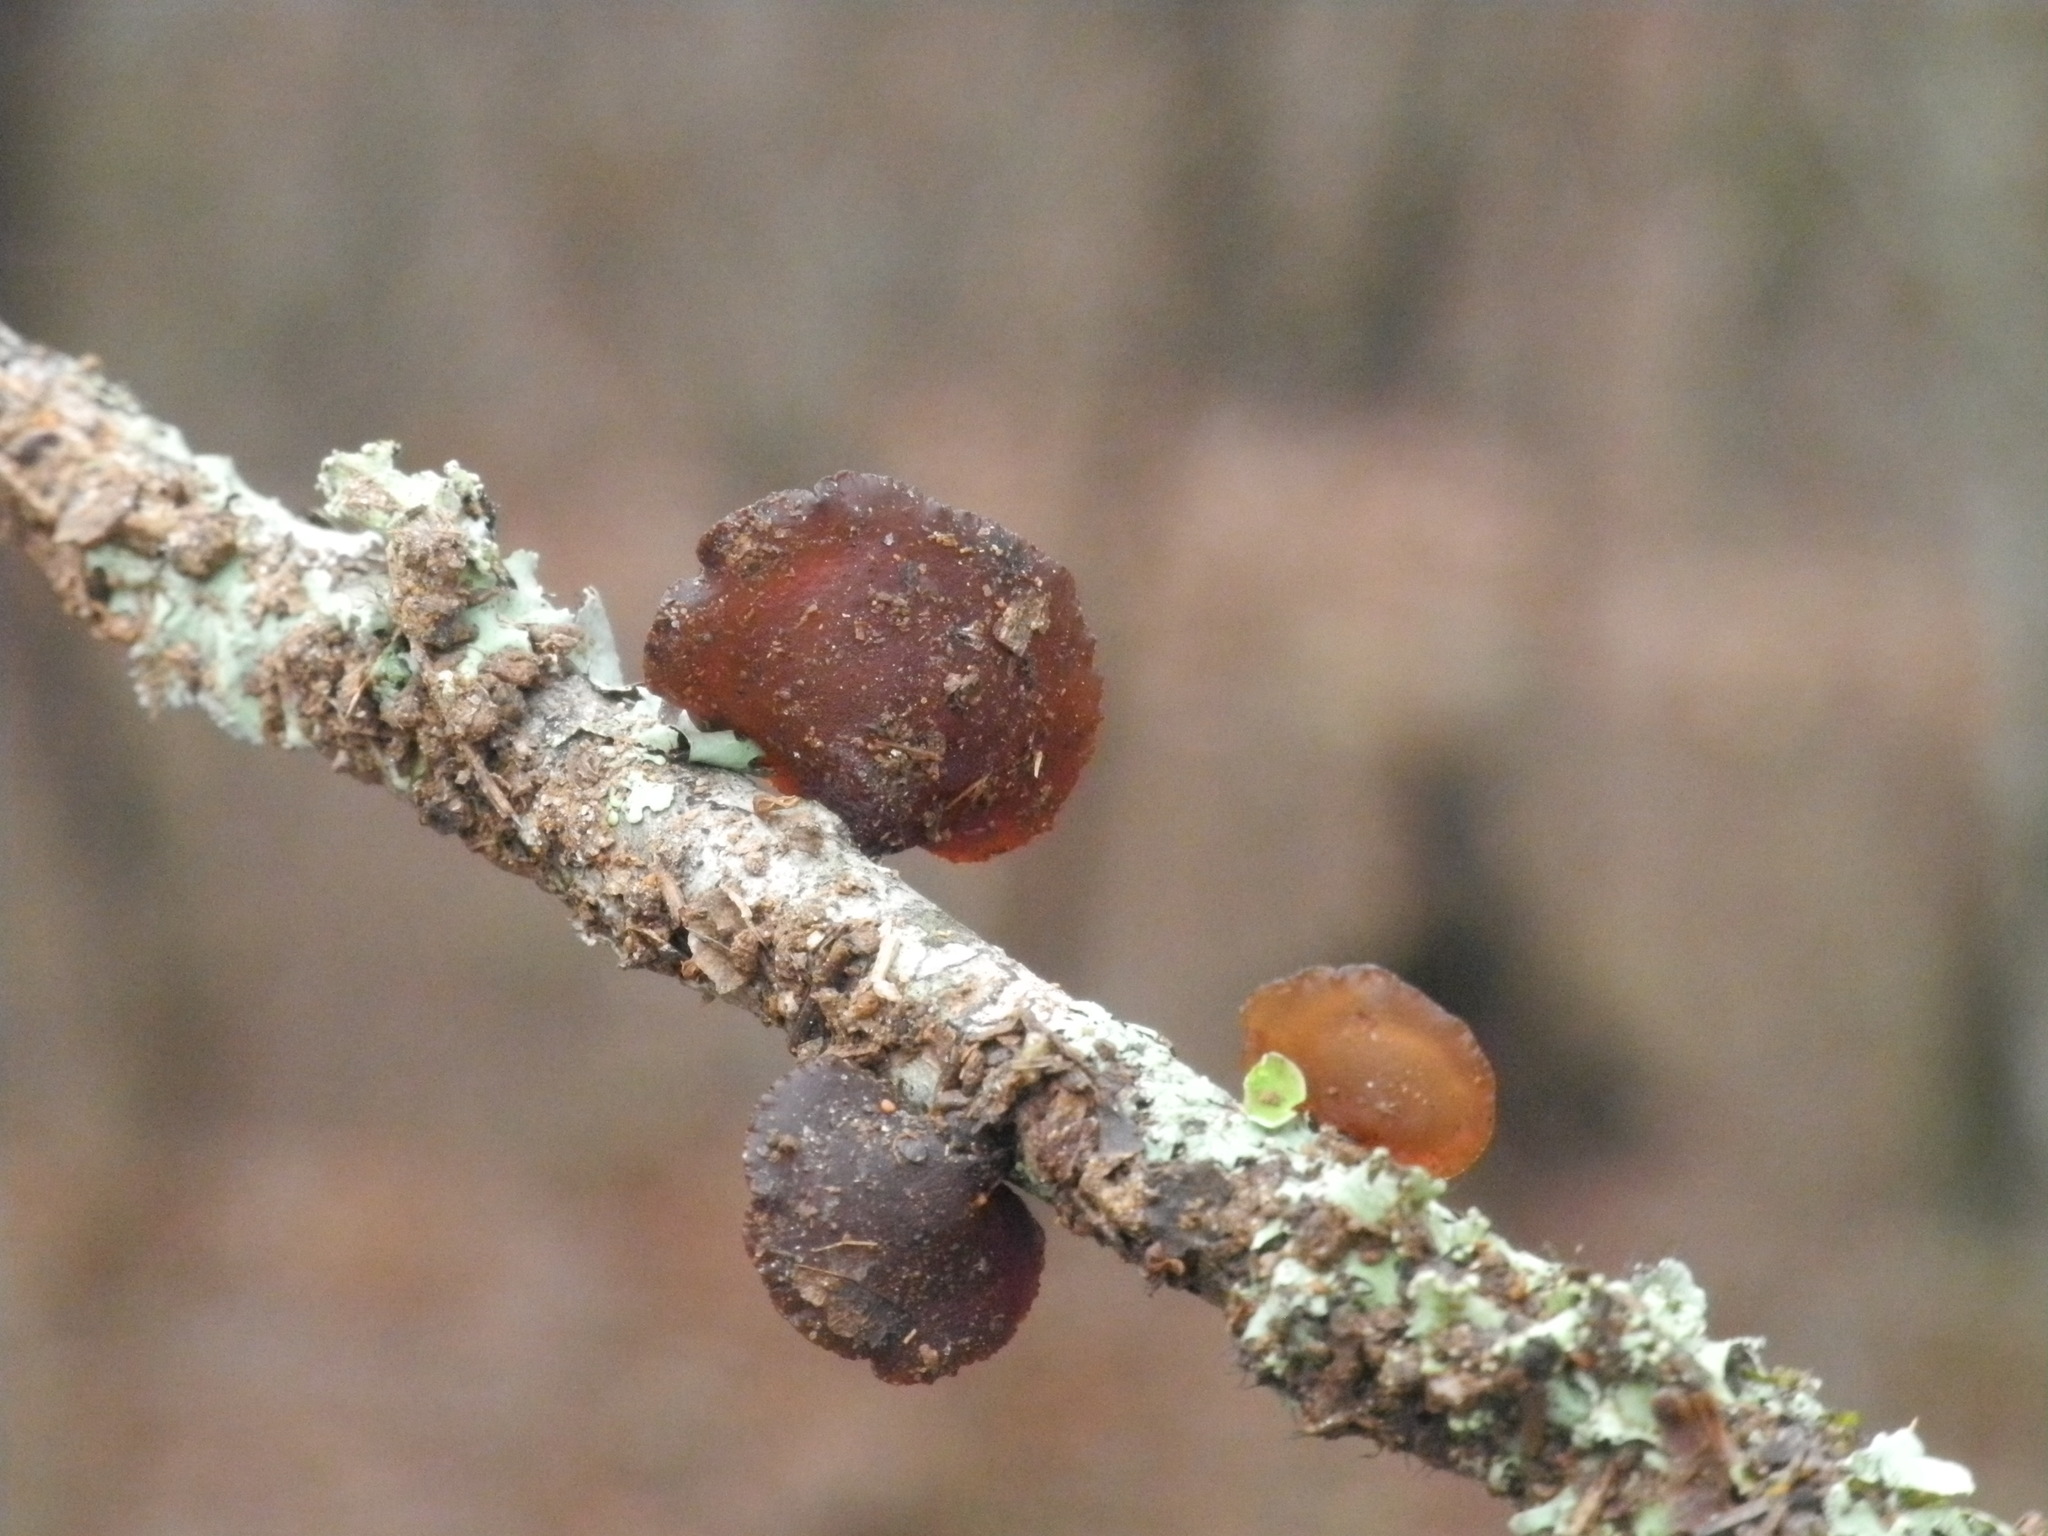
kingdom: Fungi
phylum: Basidiomycota
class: Agaricomycetes
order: Auriculariales
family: Auriculariaceae
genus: Exidia
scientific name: Exidia
